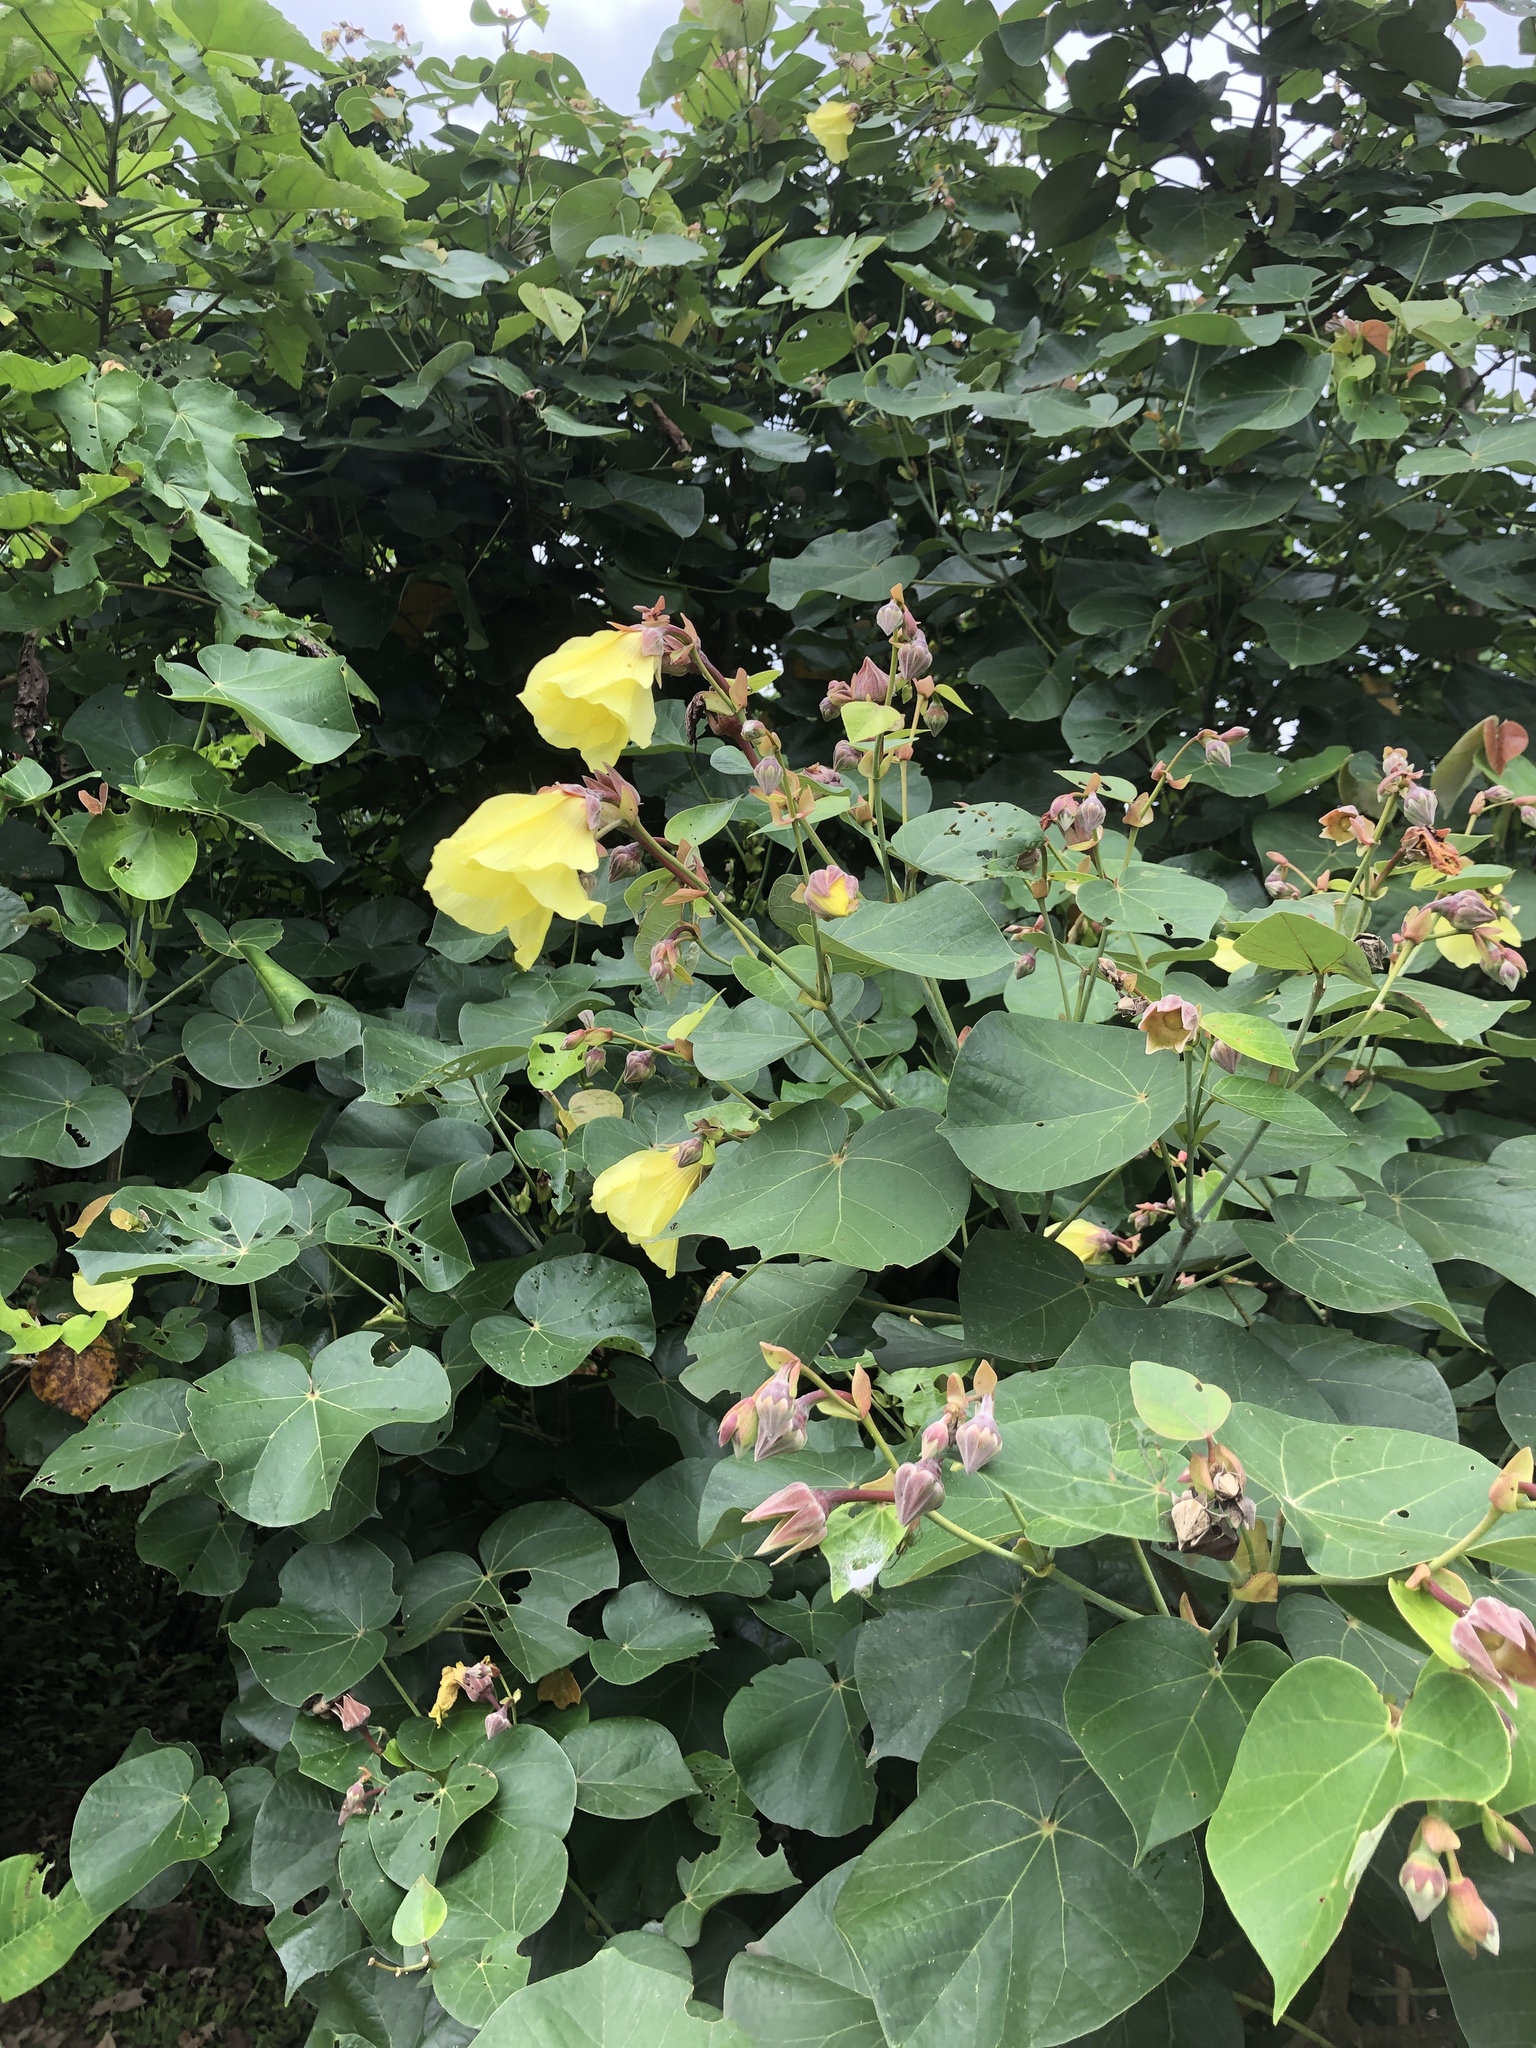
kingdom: Plantae
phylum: Tracheophyta
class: Magnoliopsida
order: Malvales
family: Malvaceae
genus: Talipariti
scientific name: Talipariti tiliaceum
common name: Sea hibiscus
